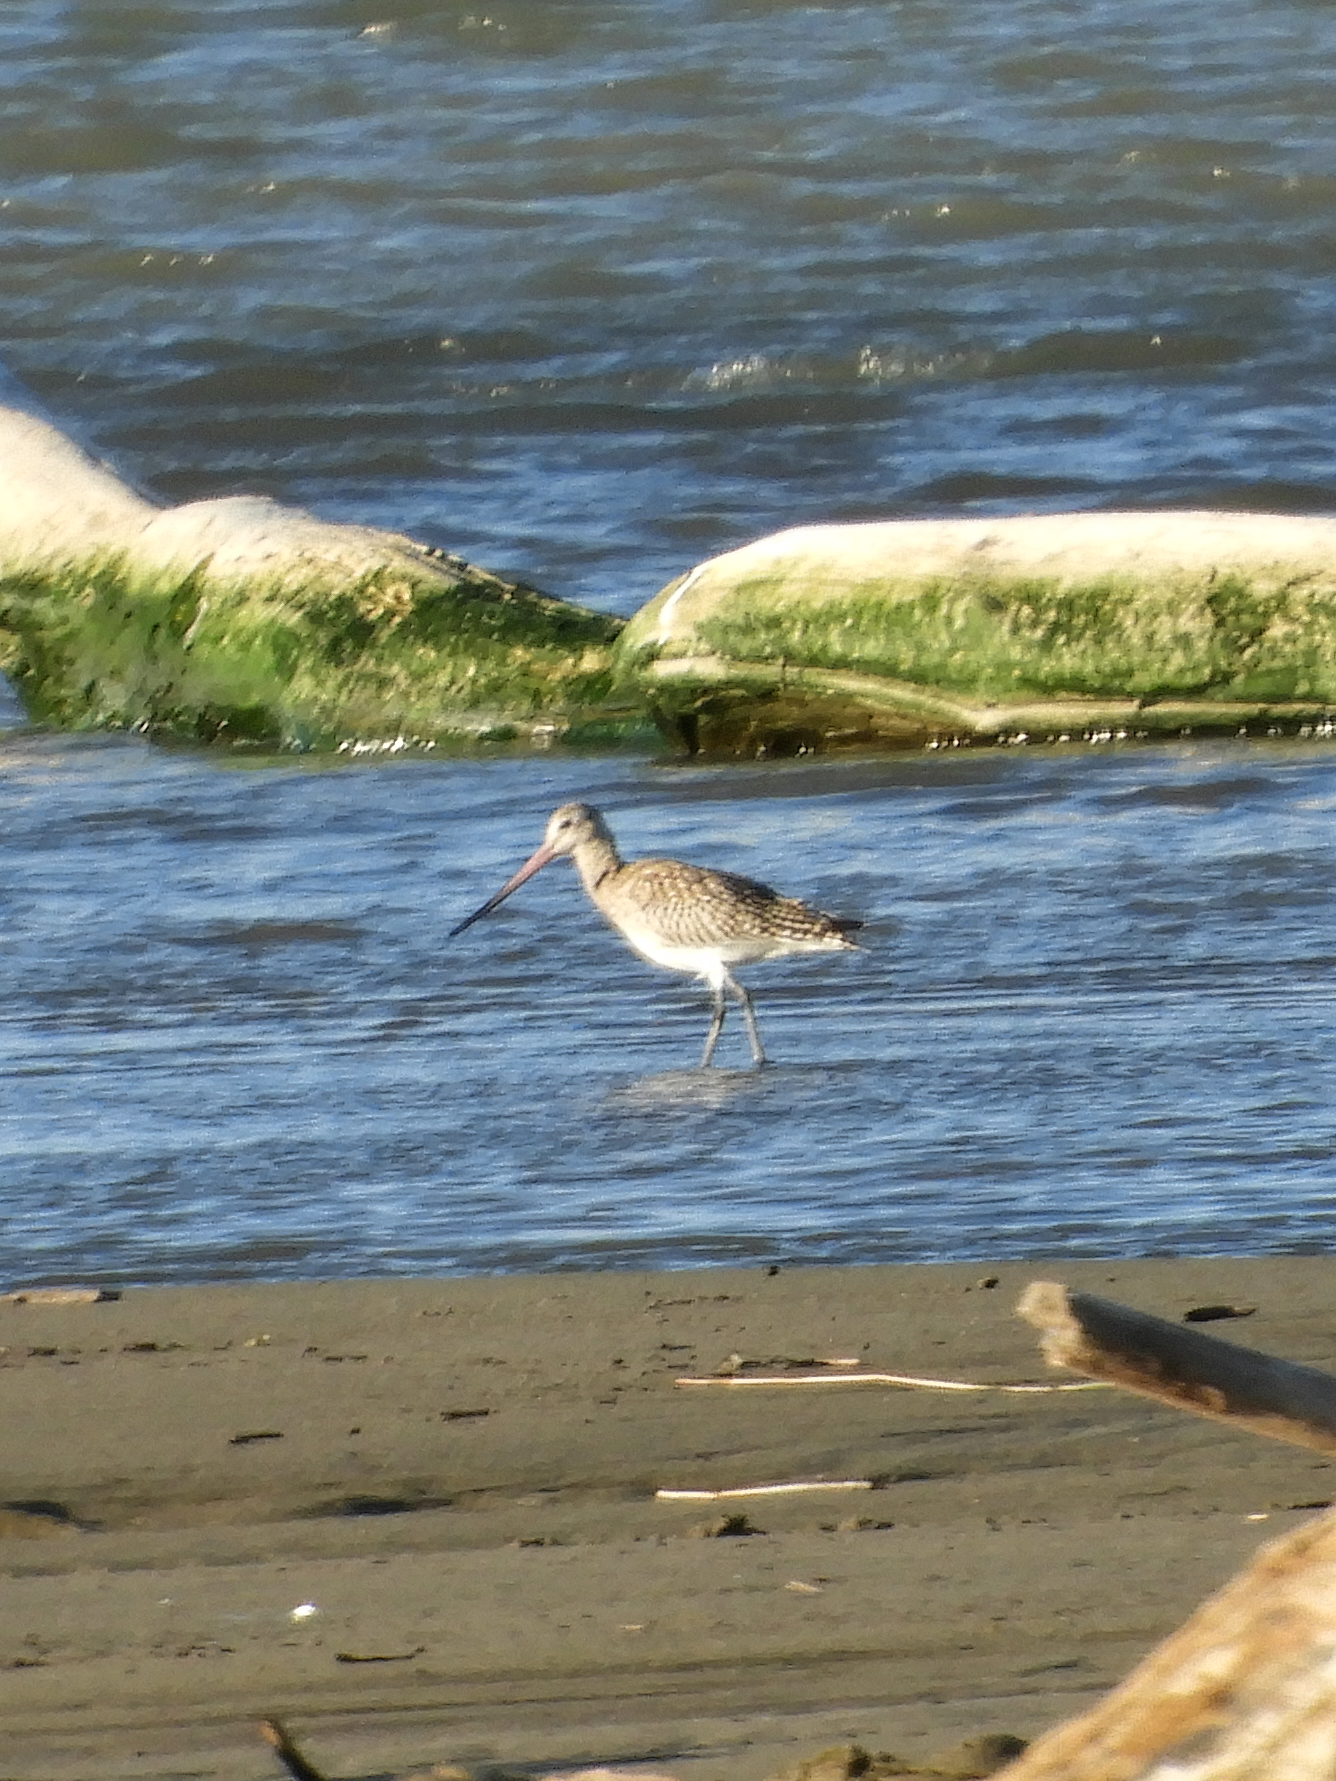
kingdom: Animalia
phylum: Chordata
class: Aves
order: Charadriiformes
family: Scolopacidae
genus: Limosa
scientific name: Limosa lapponica
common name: Bar-tailed godwit
